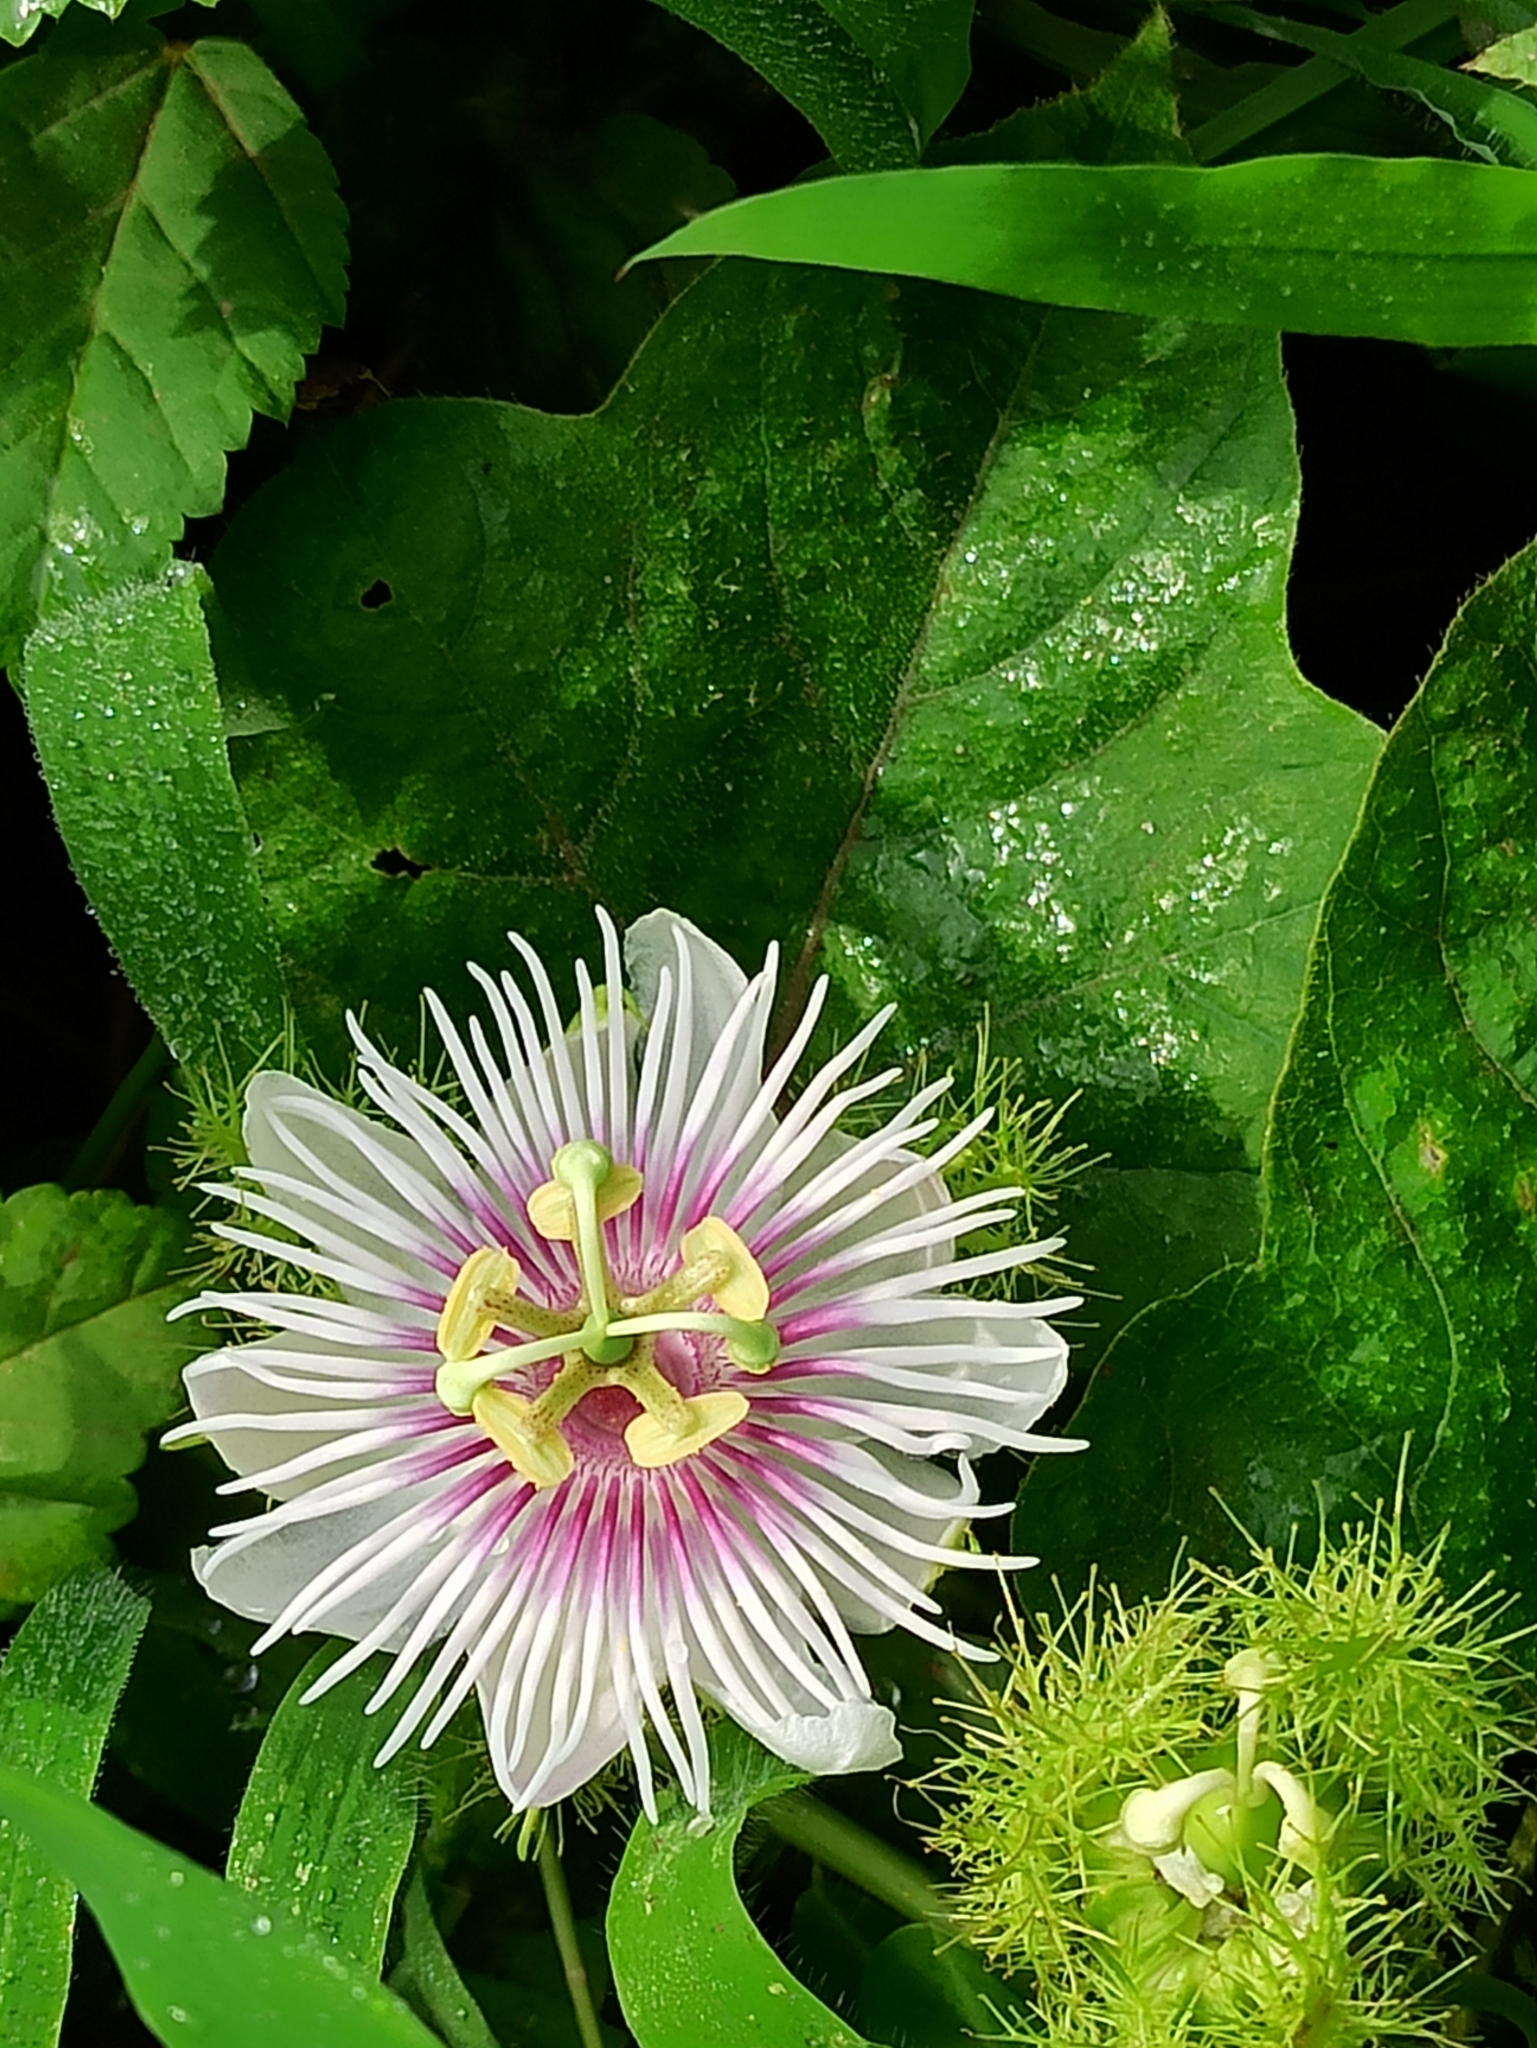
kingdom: Plantae
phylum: Tracheophyta
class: Magnoliopsida
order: Malpighiales
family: Passifloraceae
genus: Passiflora
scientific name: Passiflora vesicaria
